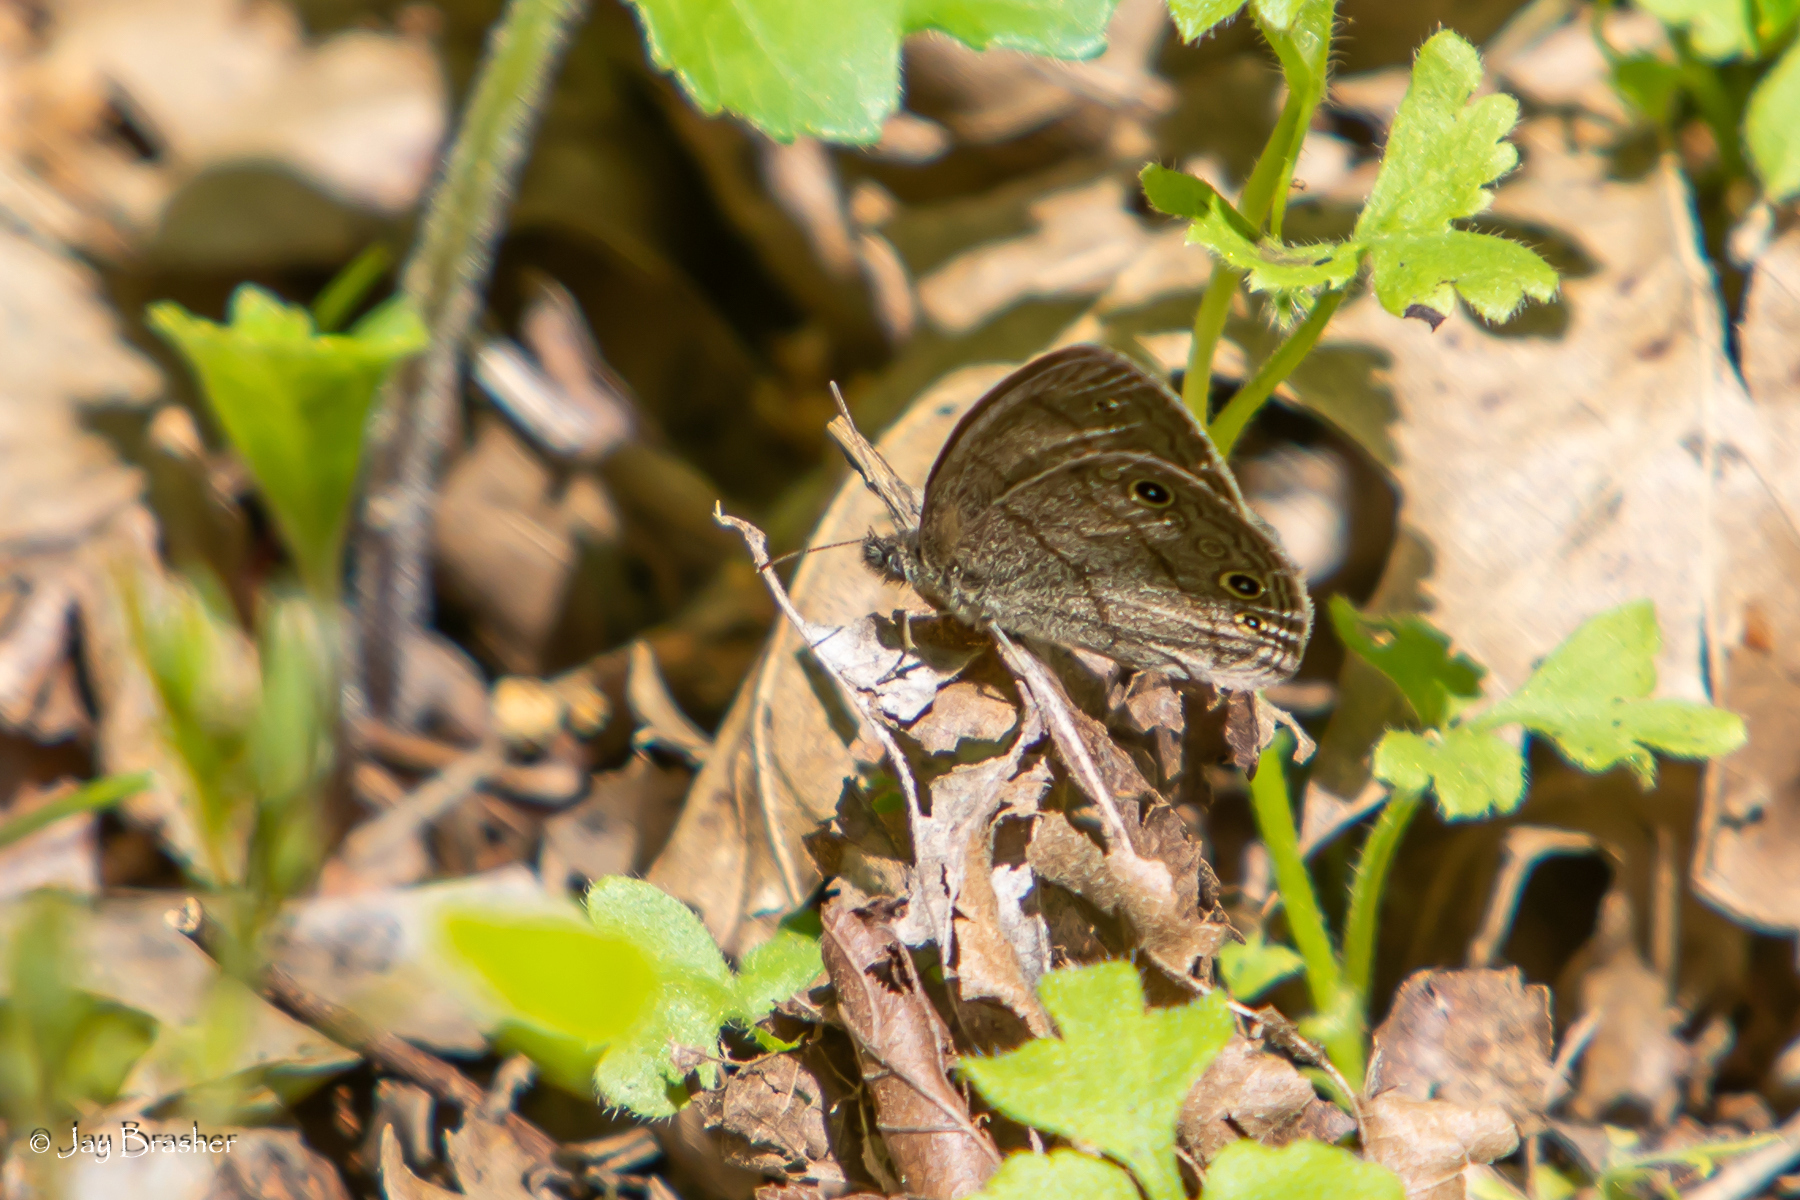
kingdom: Animalia
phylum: Arthropoda
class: Insecta
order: Lepidoptera
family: Nymphalidae
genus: Hermeuptychia
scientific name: Hermeuptychia hermes
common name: Hermes satyr
